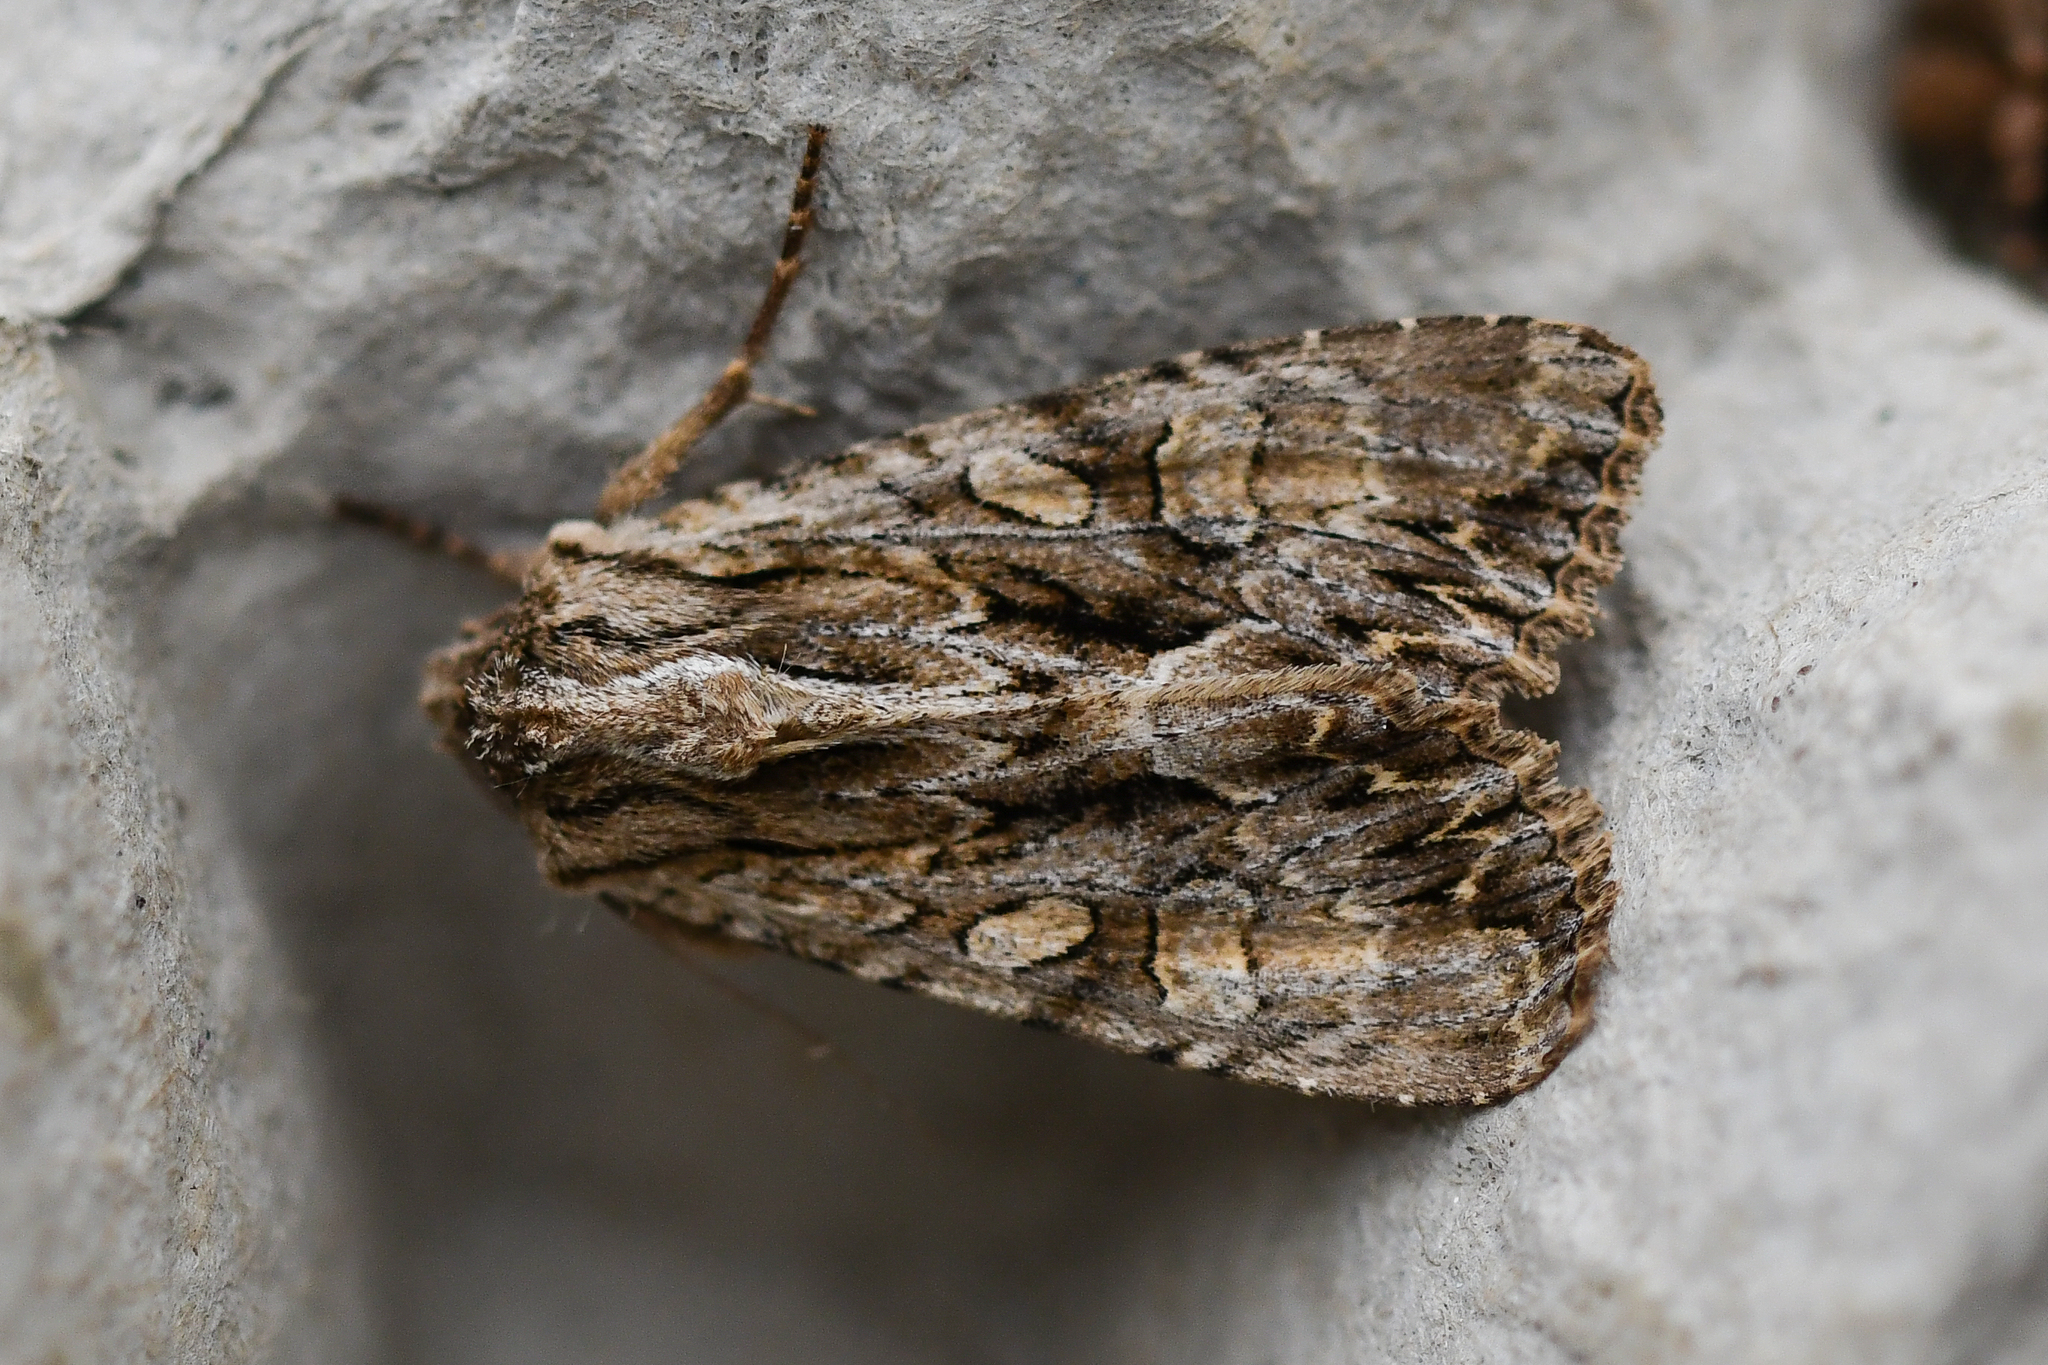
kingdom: Animalia
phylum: Arthropoda
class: Insecta
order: Lepidoptera
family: Noctuidae
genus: Apamea
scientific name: Apamea monoglypha
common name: Dark arches
